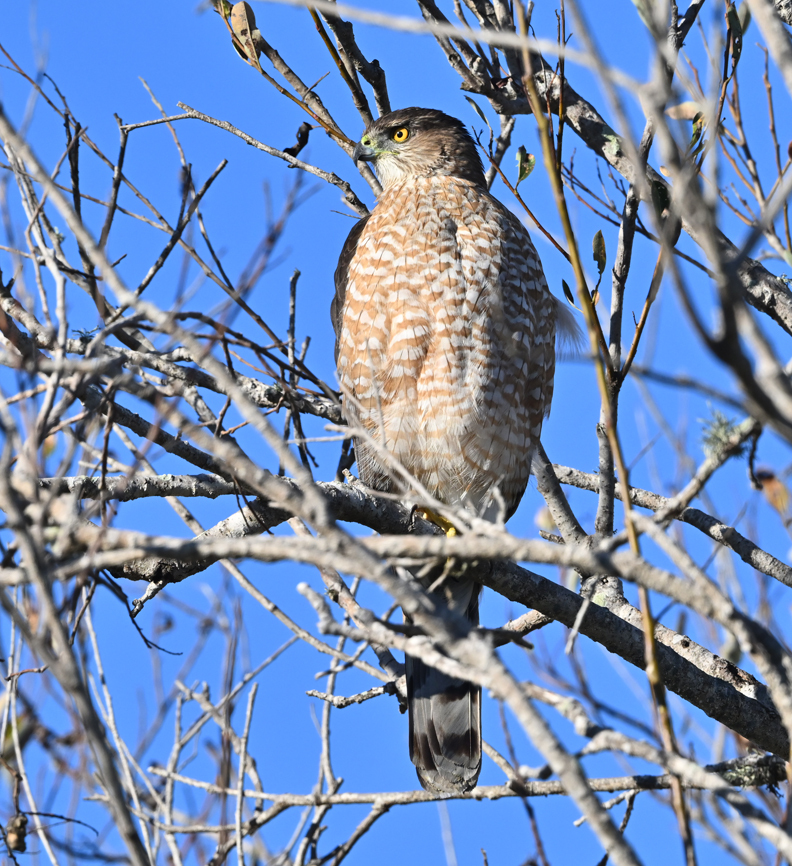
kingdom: Animalia
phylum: Chordata
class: Aves
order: Accipitriformes
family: Accipitridae
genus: Accipiter
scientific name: Accipiter cooperii
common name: Cooper's hawk
